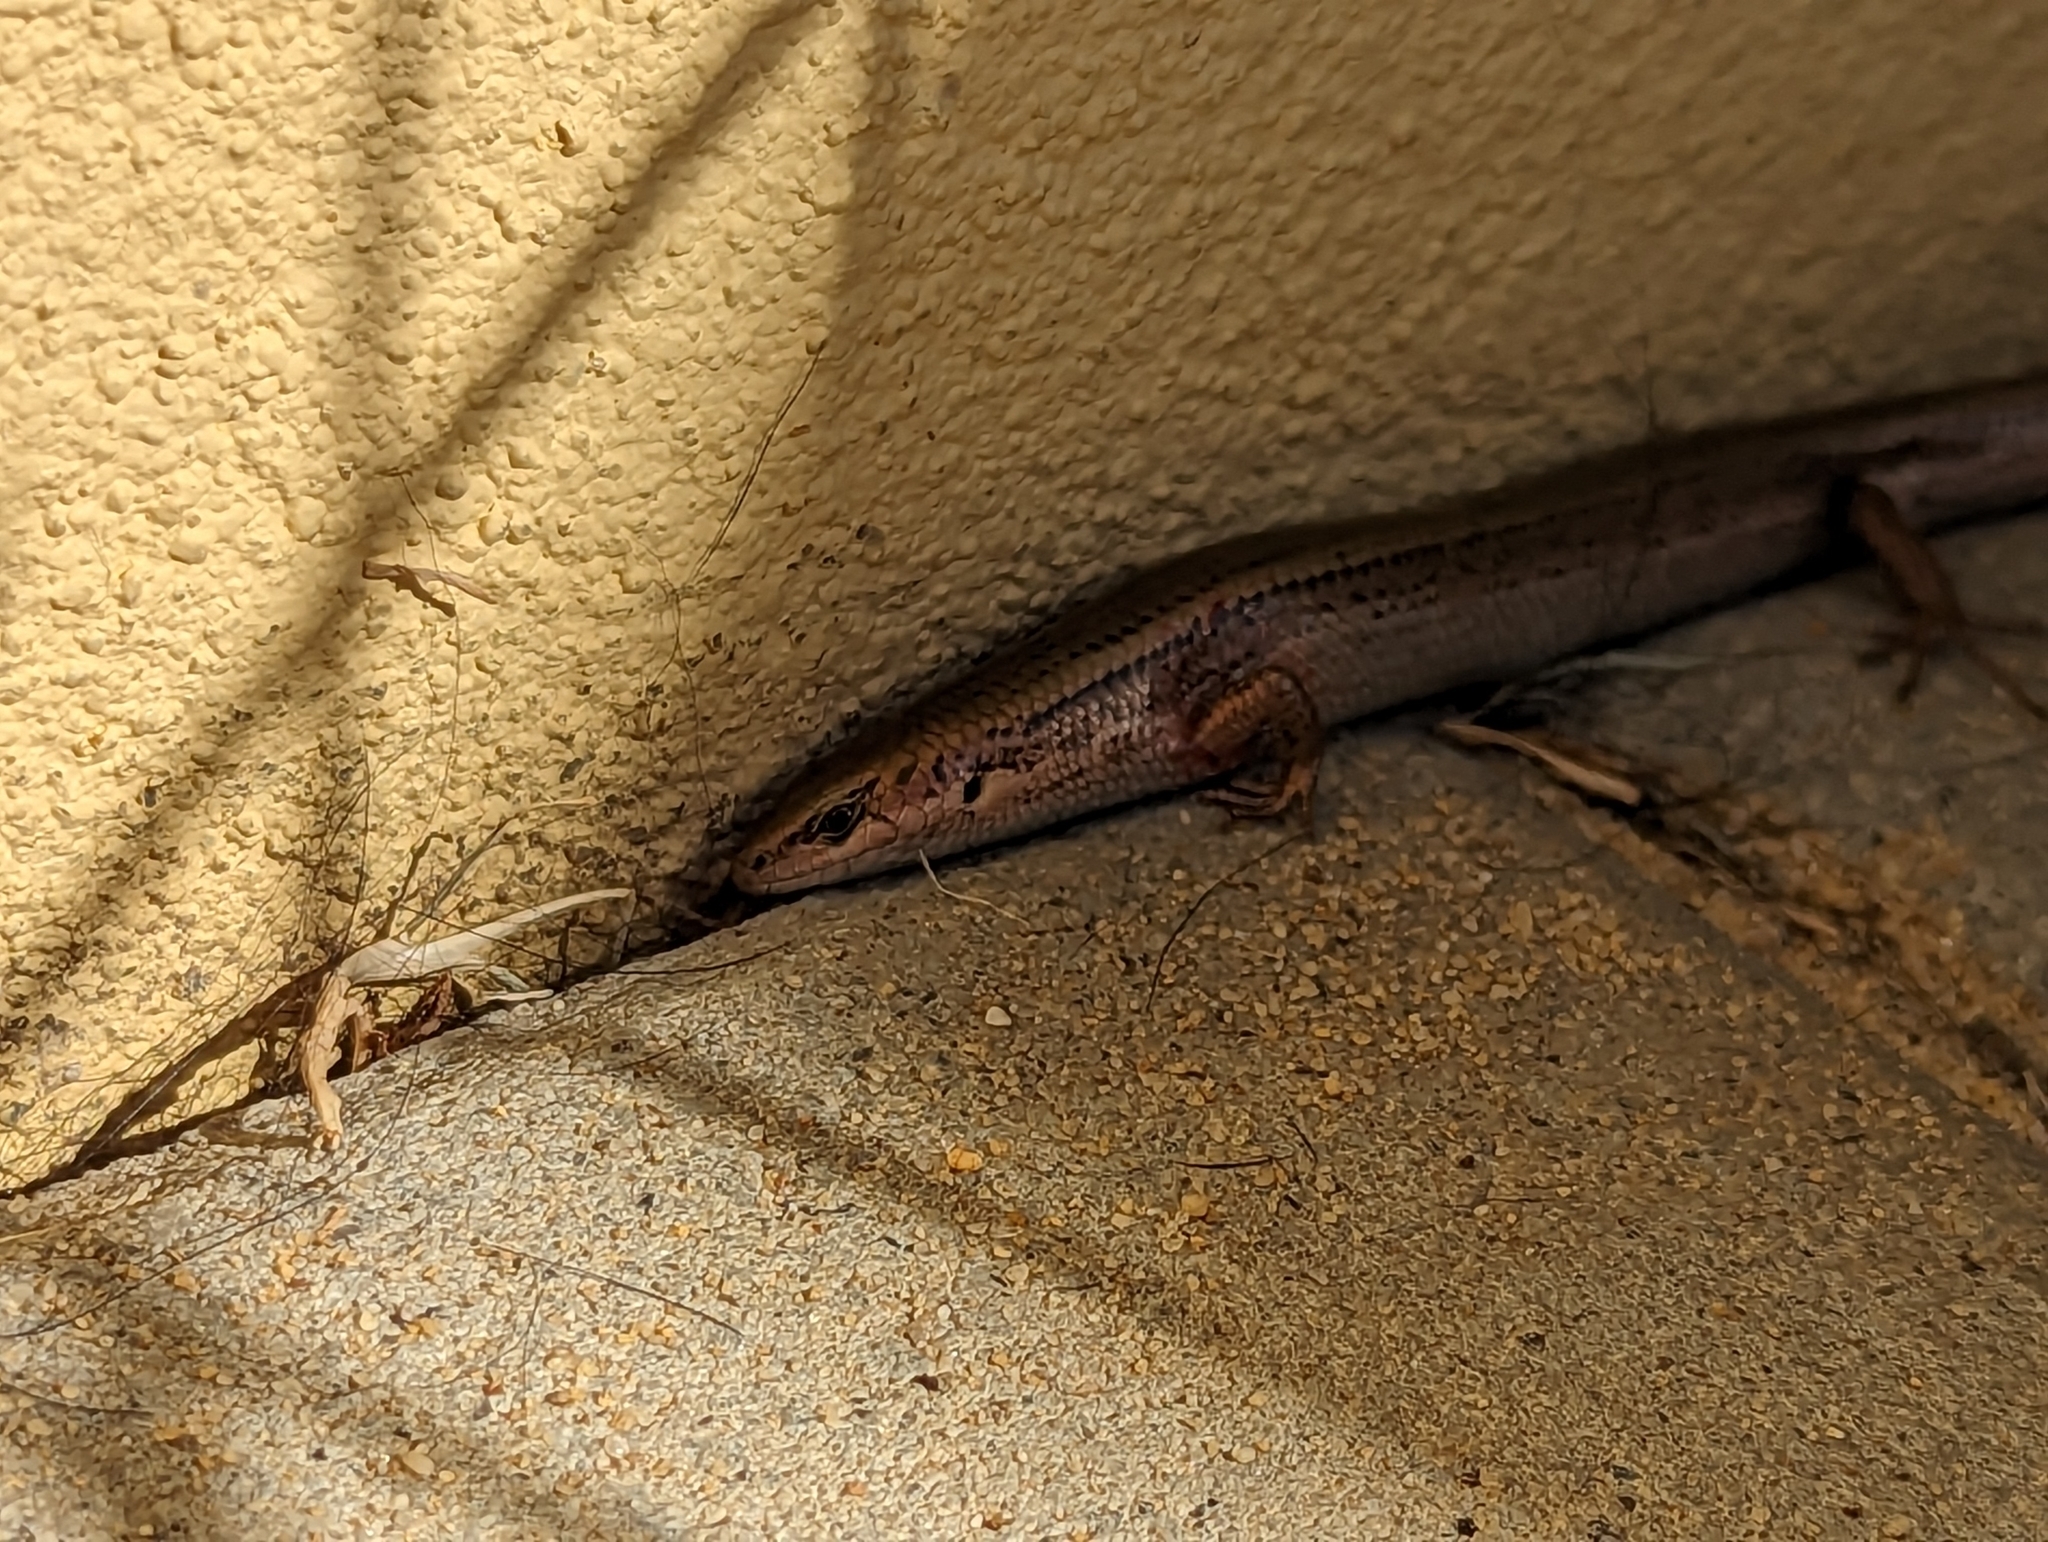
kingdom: Animalia
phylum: Chordata
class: Squamata
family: Scincidae
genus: Acritoscincus
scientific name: Acritoscincus trilineatus
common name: New holland skink
